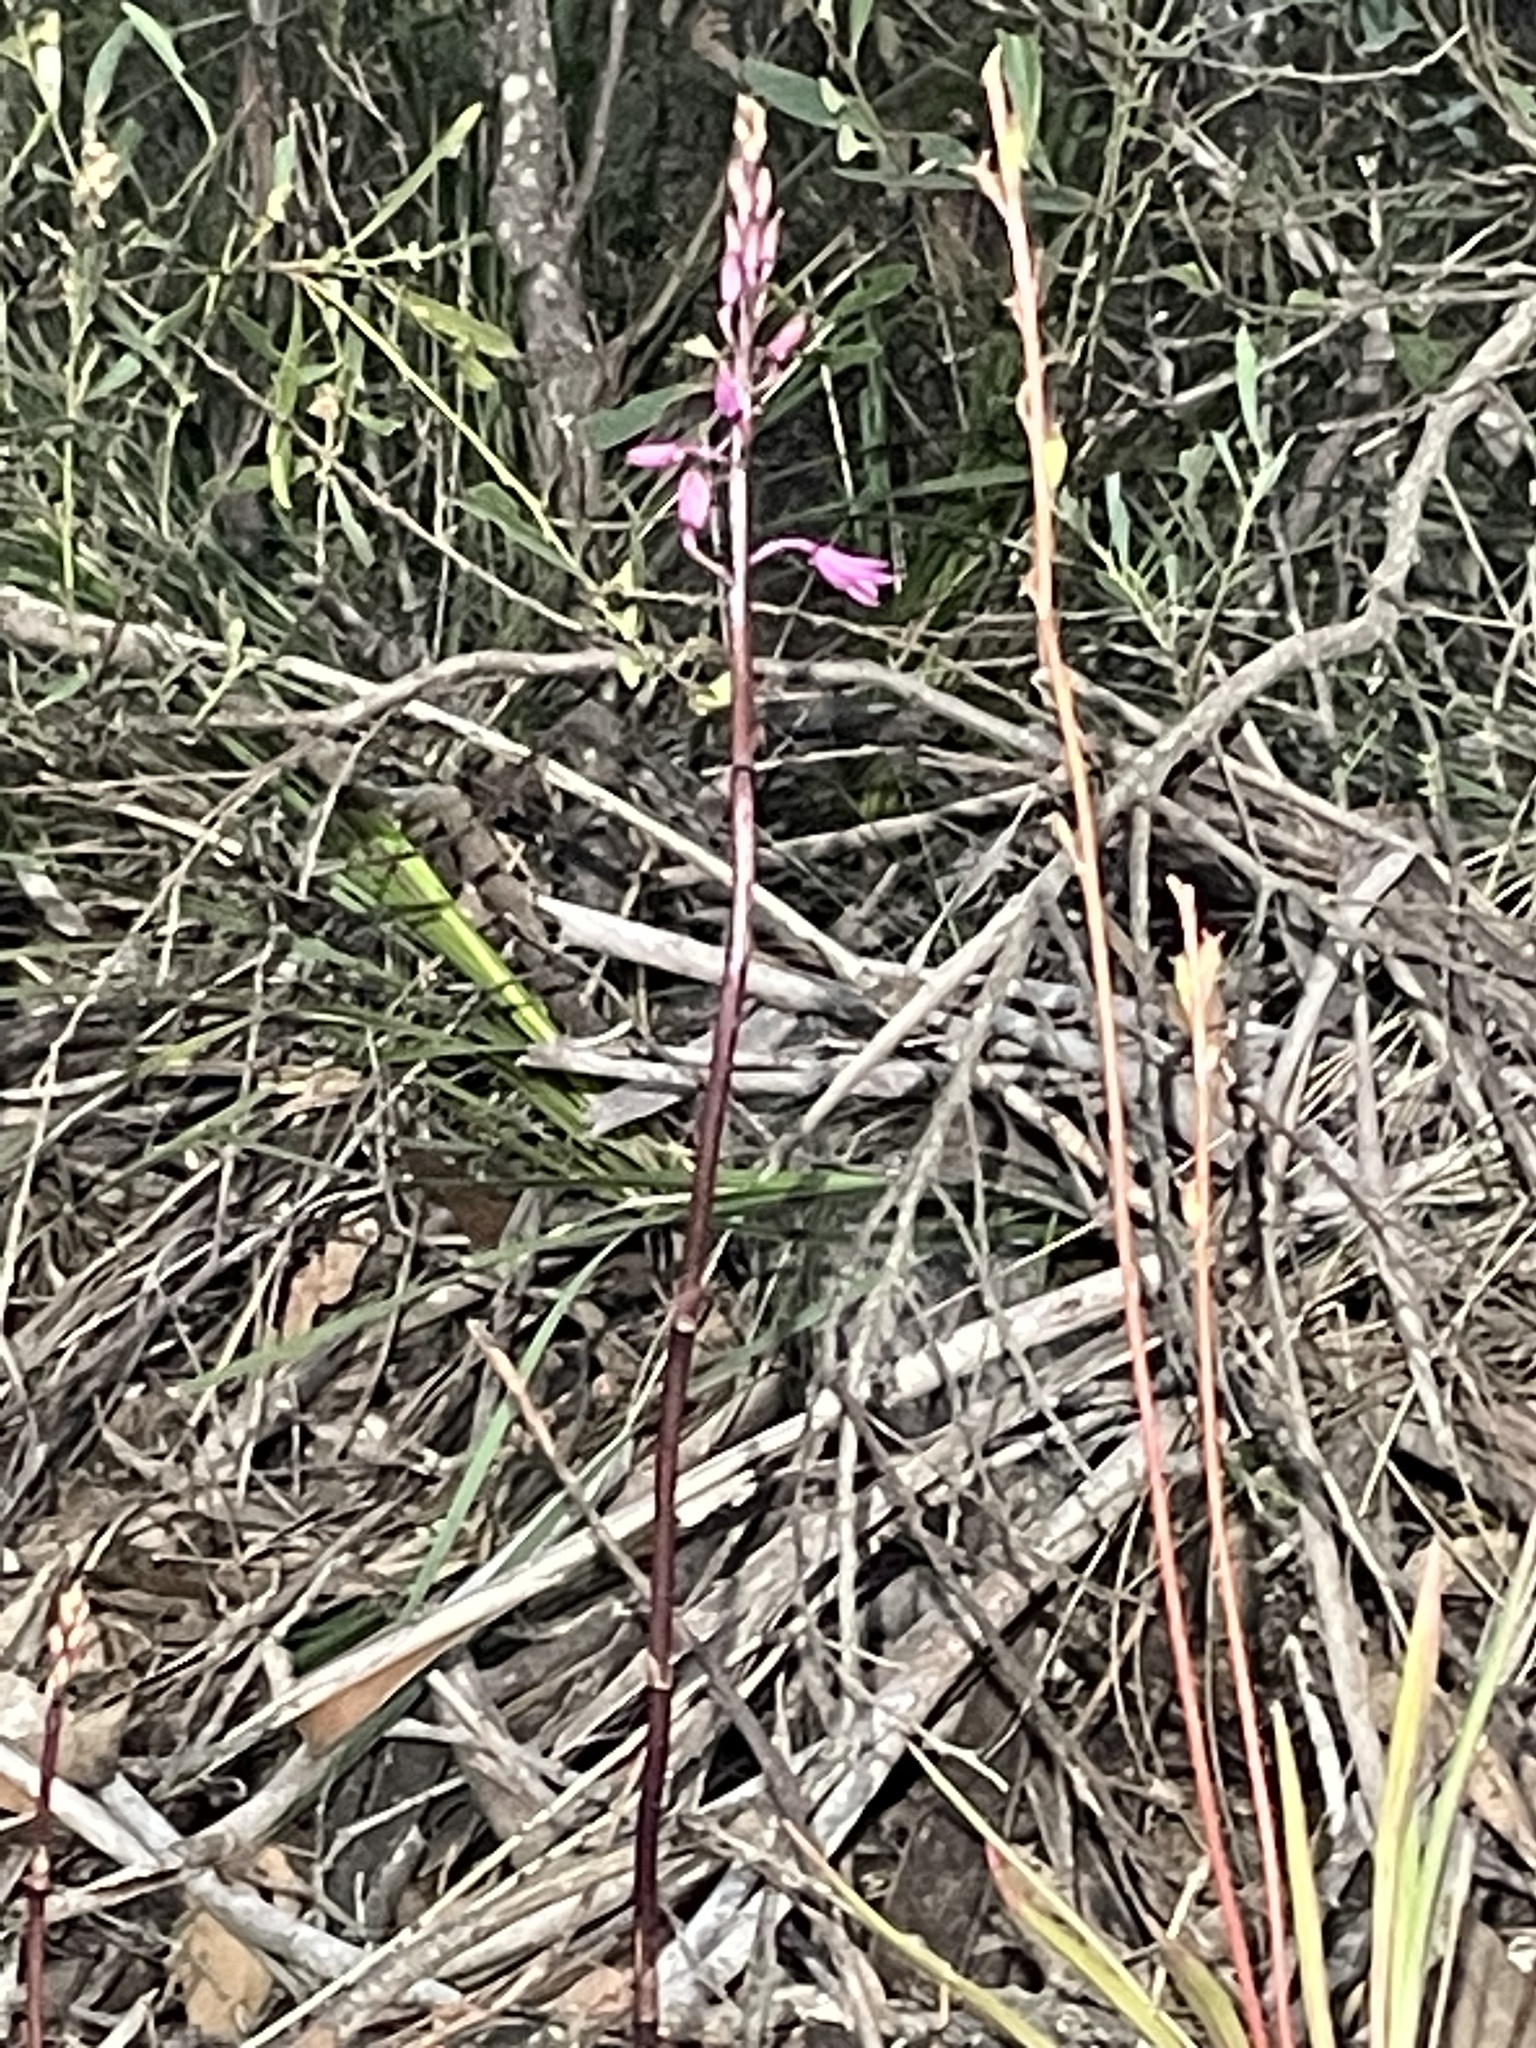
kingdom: Plantae
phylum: Tracheophyta
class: Liliopsida
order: Asparagales
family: Orchidaceae
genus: Dipodium
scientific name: Dipodium roseum
